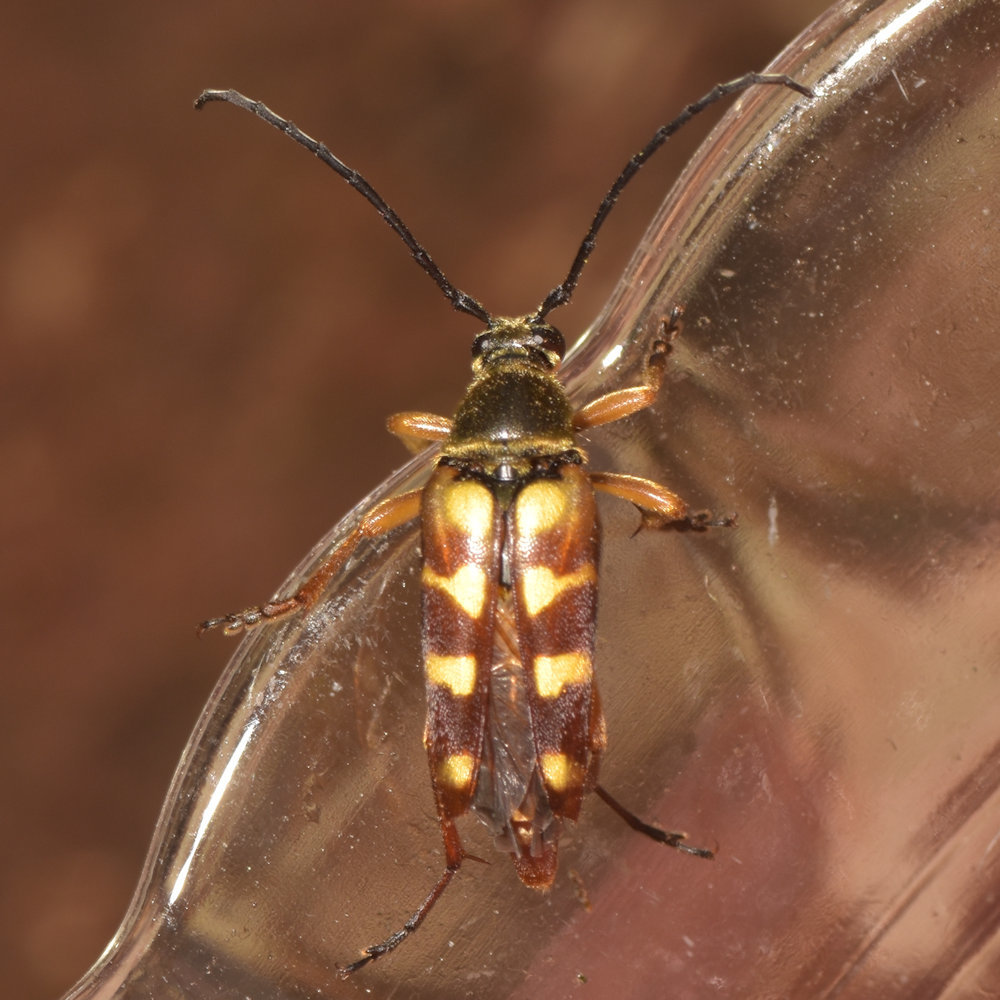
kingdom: Animalia
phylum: Arthropoda
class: Insecta
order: Coleoptera
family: Cerambycidae
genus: Typocerus
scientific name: Typocerus velutinus
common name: Banded longhorn beetle
